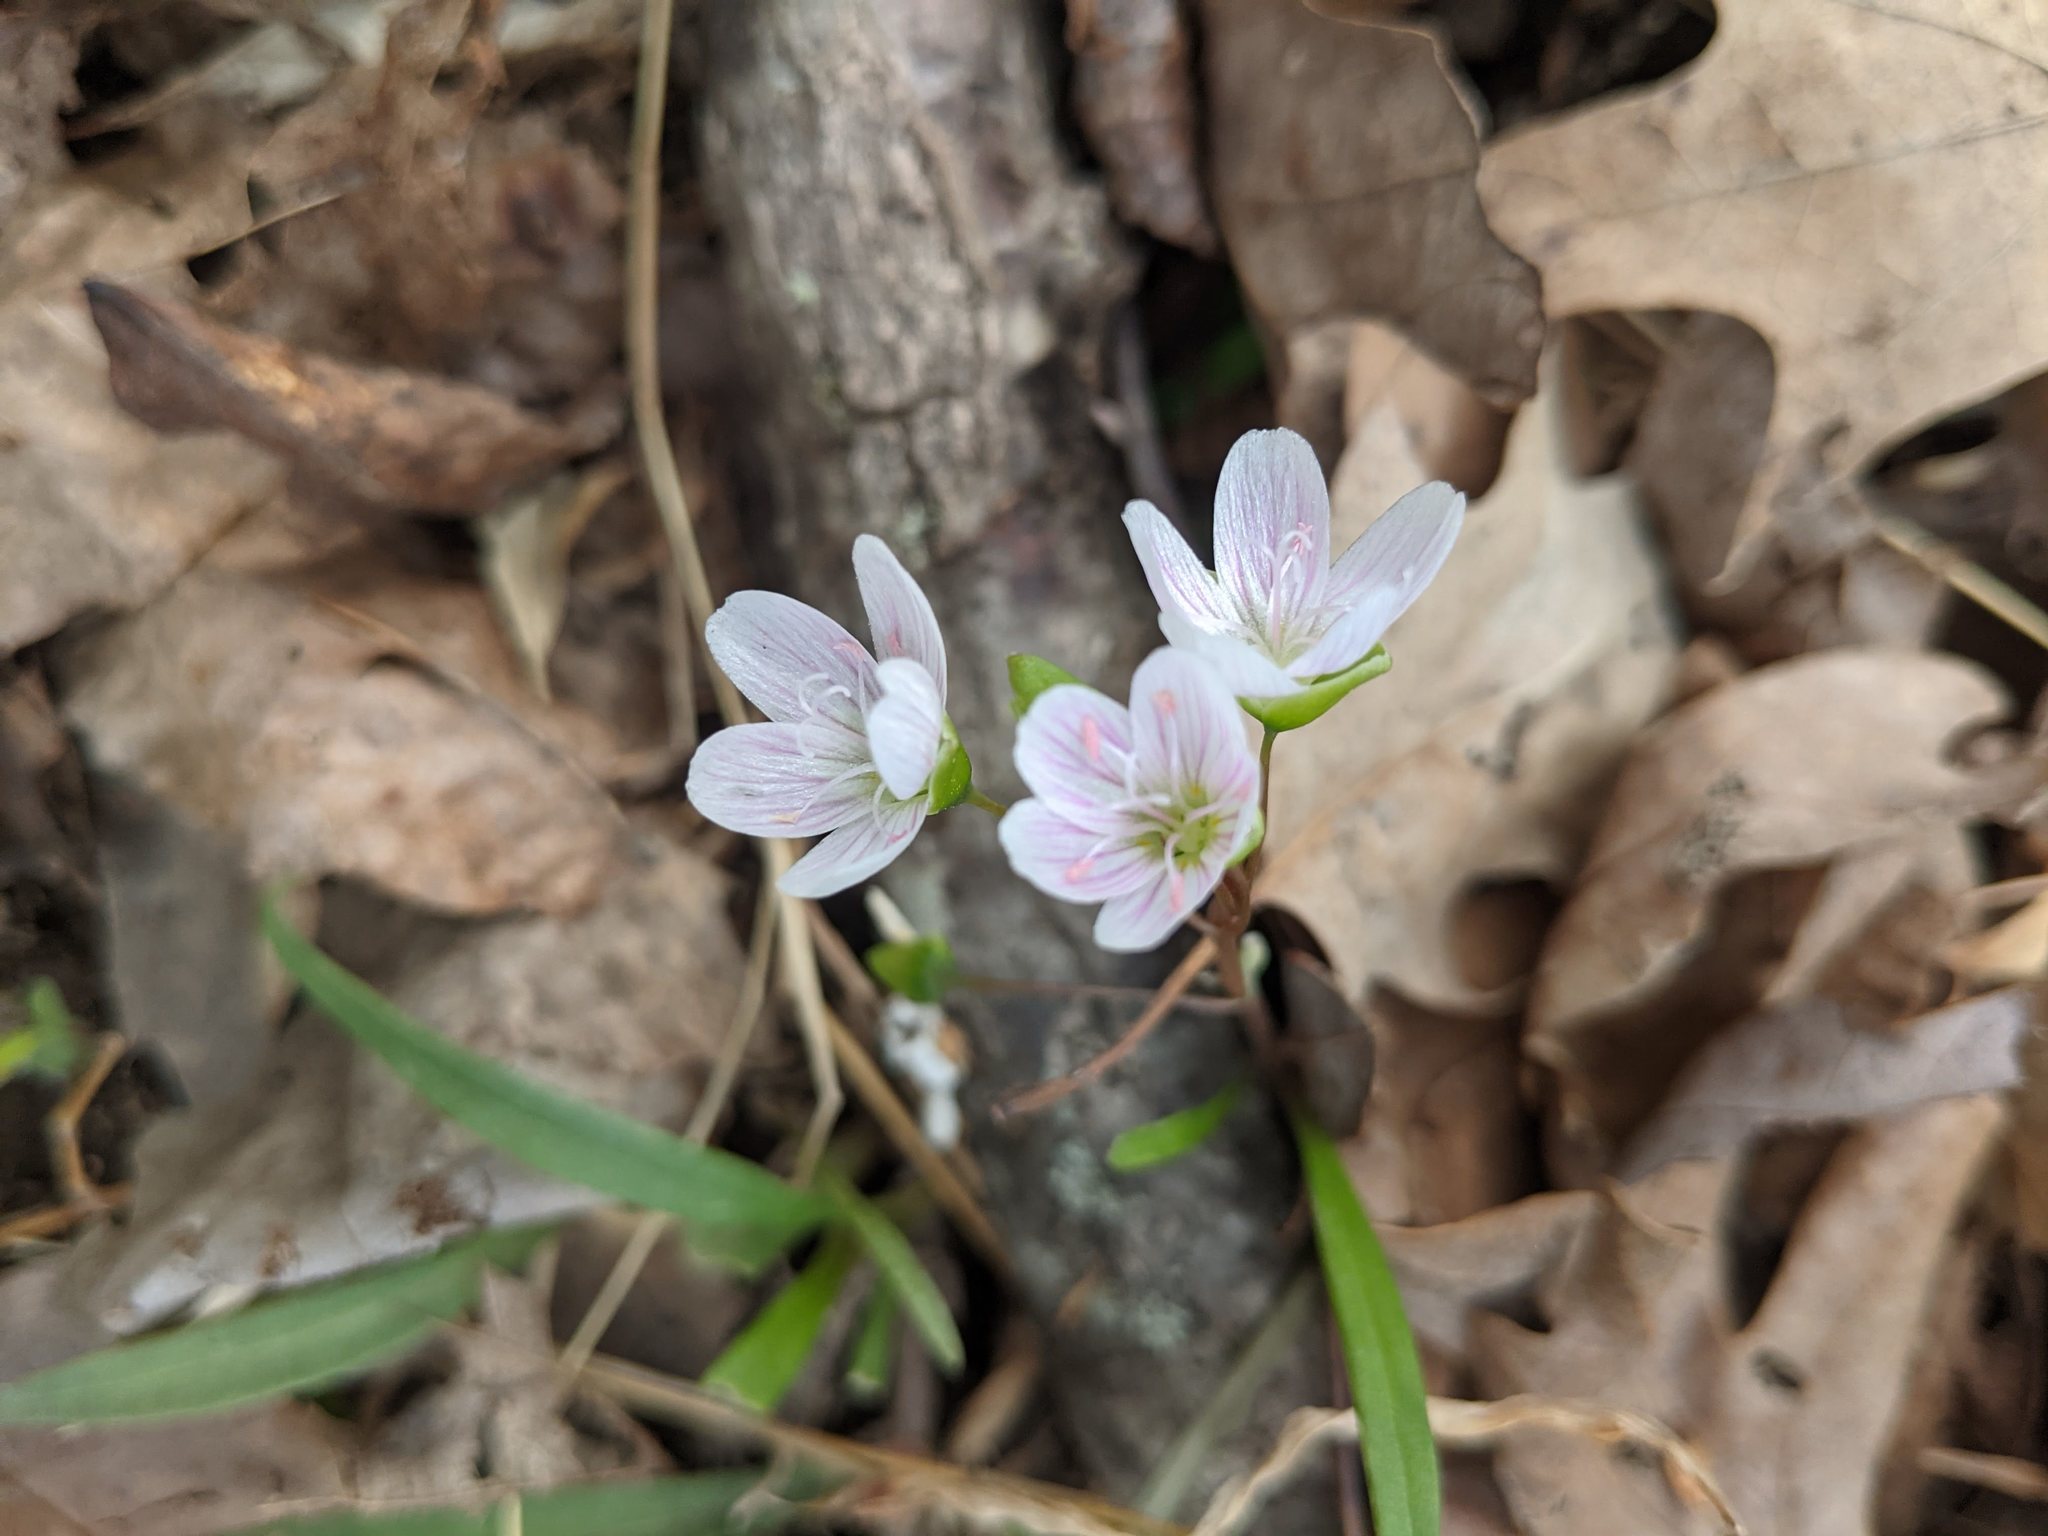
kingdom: Plantae
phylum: Tracheophyta
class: Magnoliopsida
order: Caryophyllales
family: Montiaceae
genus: Claytonia
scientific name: Claytonia virginica
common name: Virginia springbeauty
